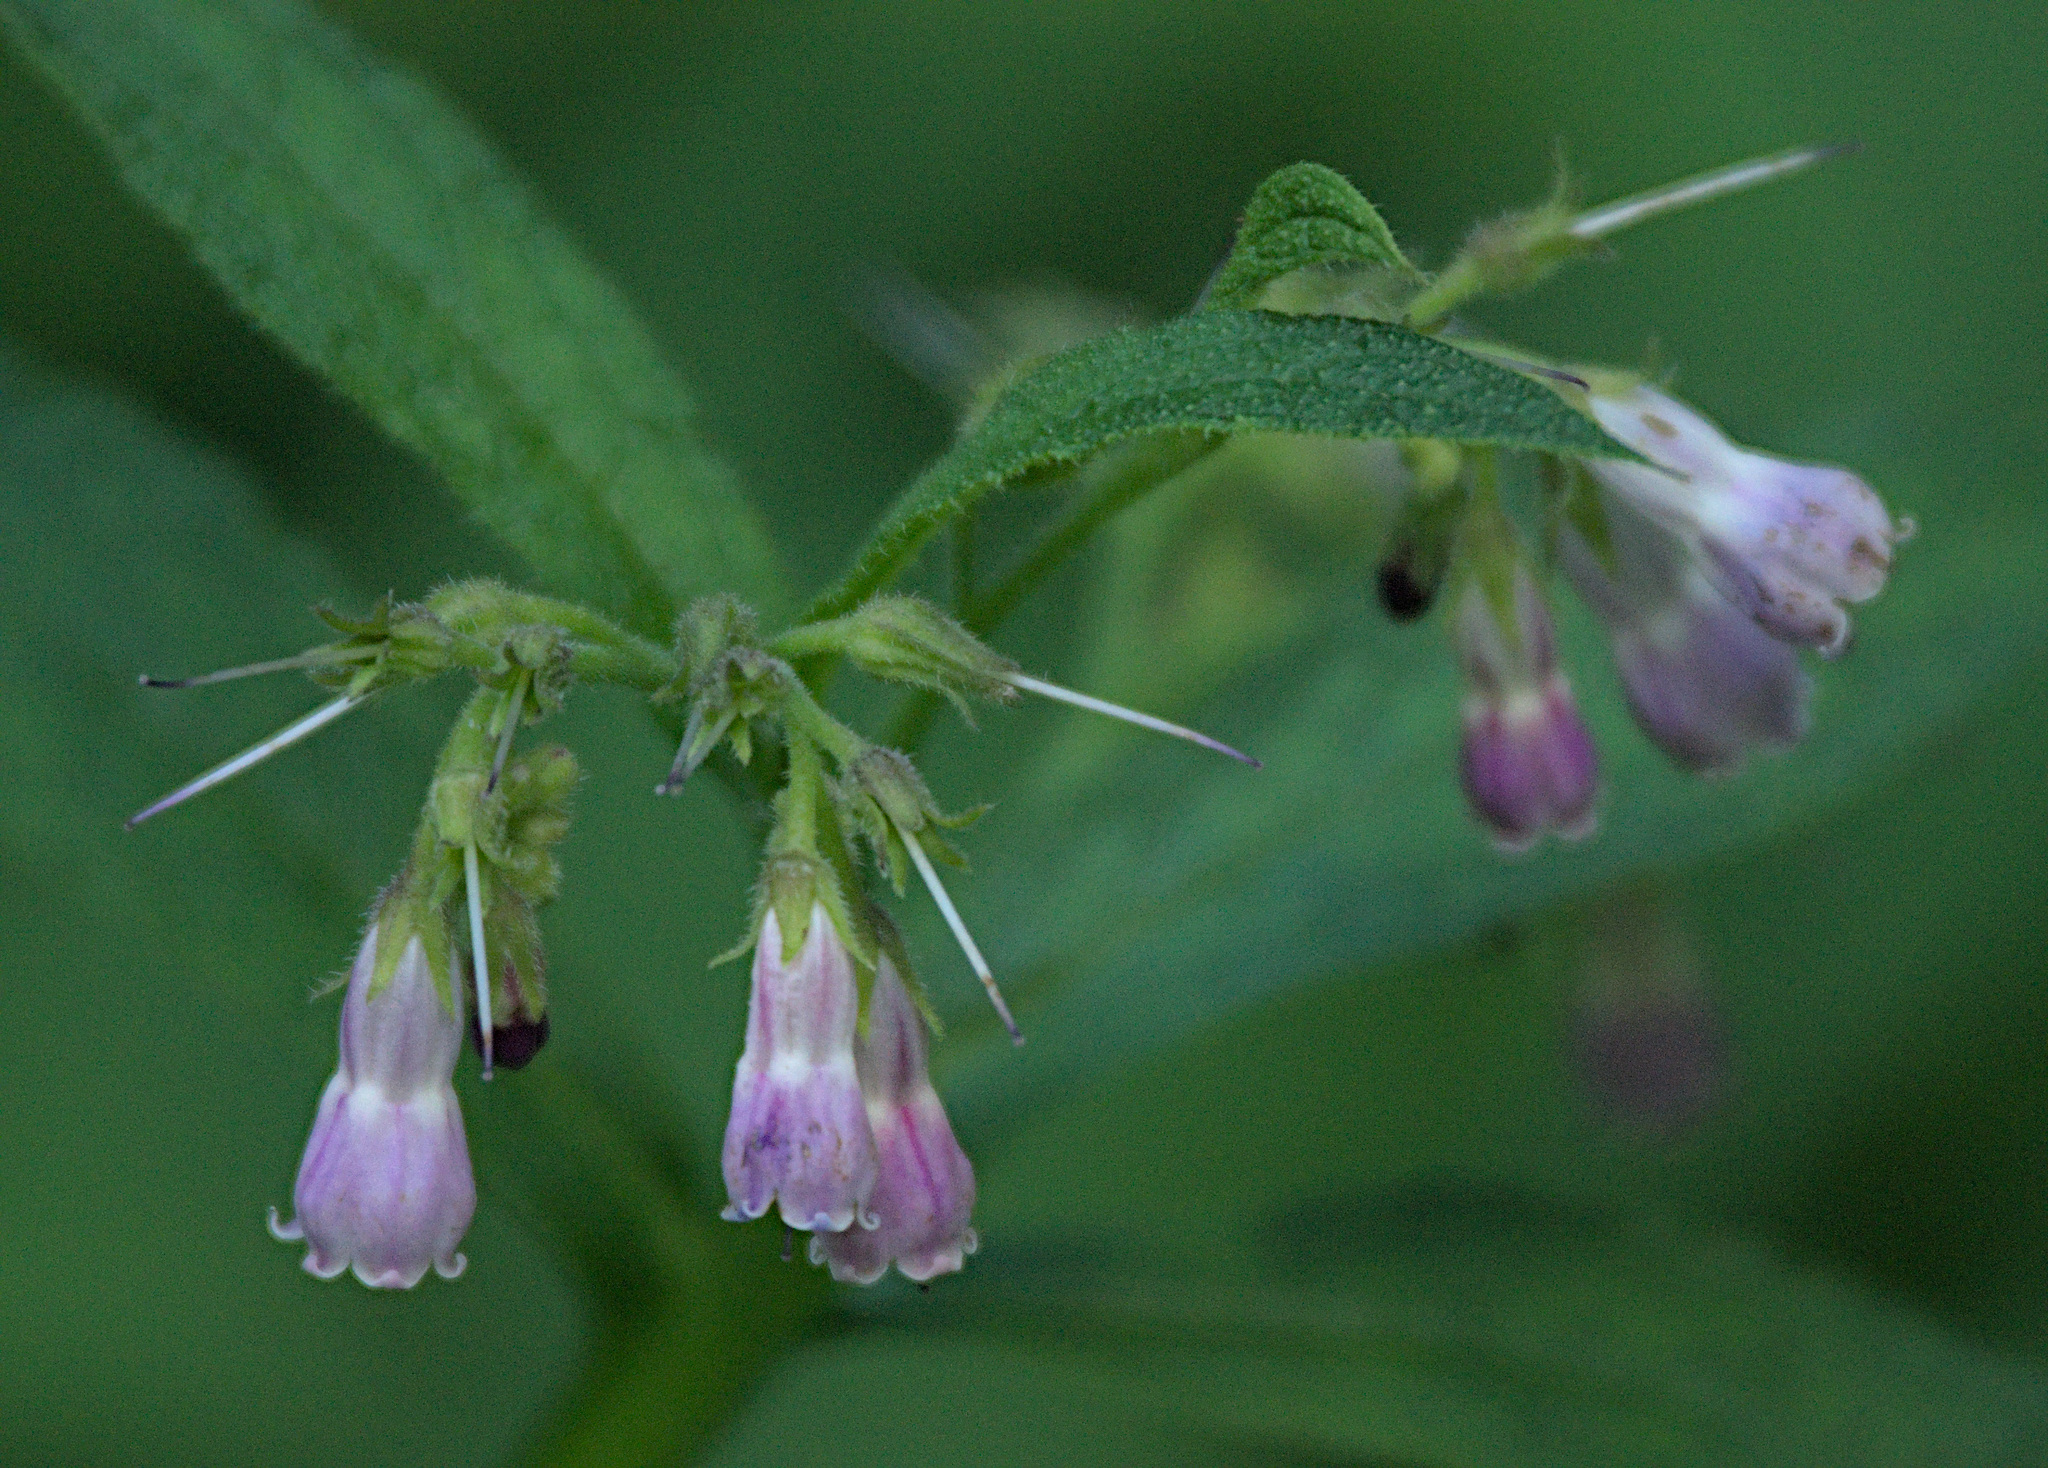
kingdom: Plantae
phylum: Tracheophyta
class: Magnoliopsida
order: Boraginales
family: Boraginaceae
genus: Symphytum
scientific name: Symphytum officinale
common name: Common comfrey
